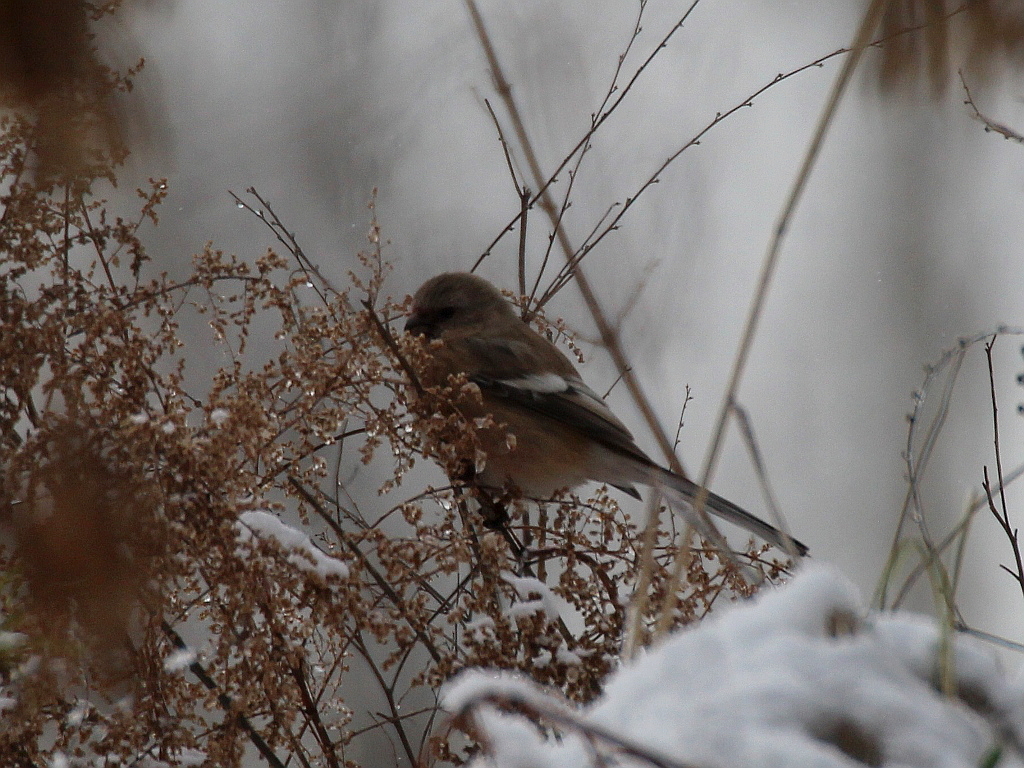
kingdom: Animalia
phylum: Chordata
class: Aves
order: Passeriformes
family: Fringillidae
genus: Carpodacus
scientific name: Carpodacus sibiricus
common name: Long-tailed rosefinch
